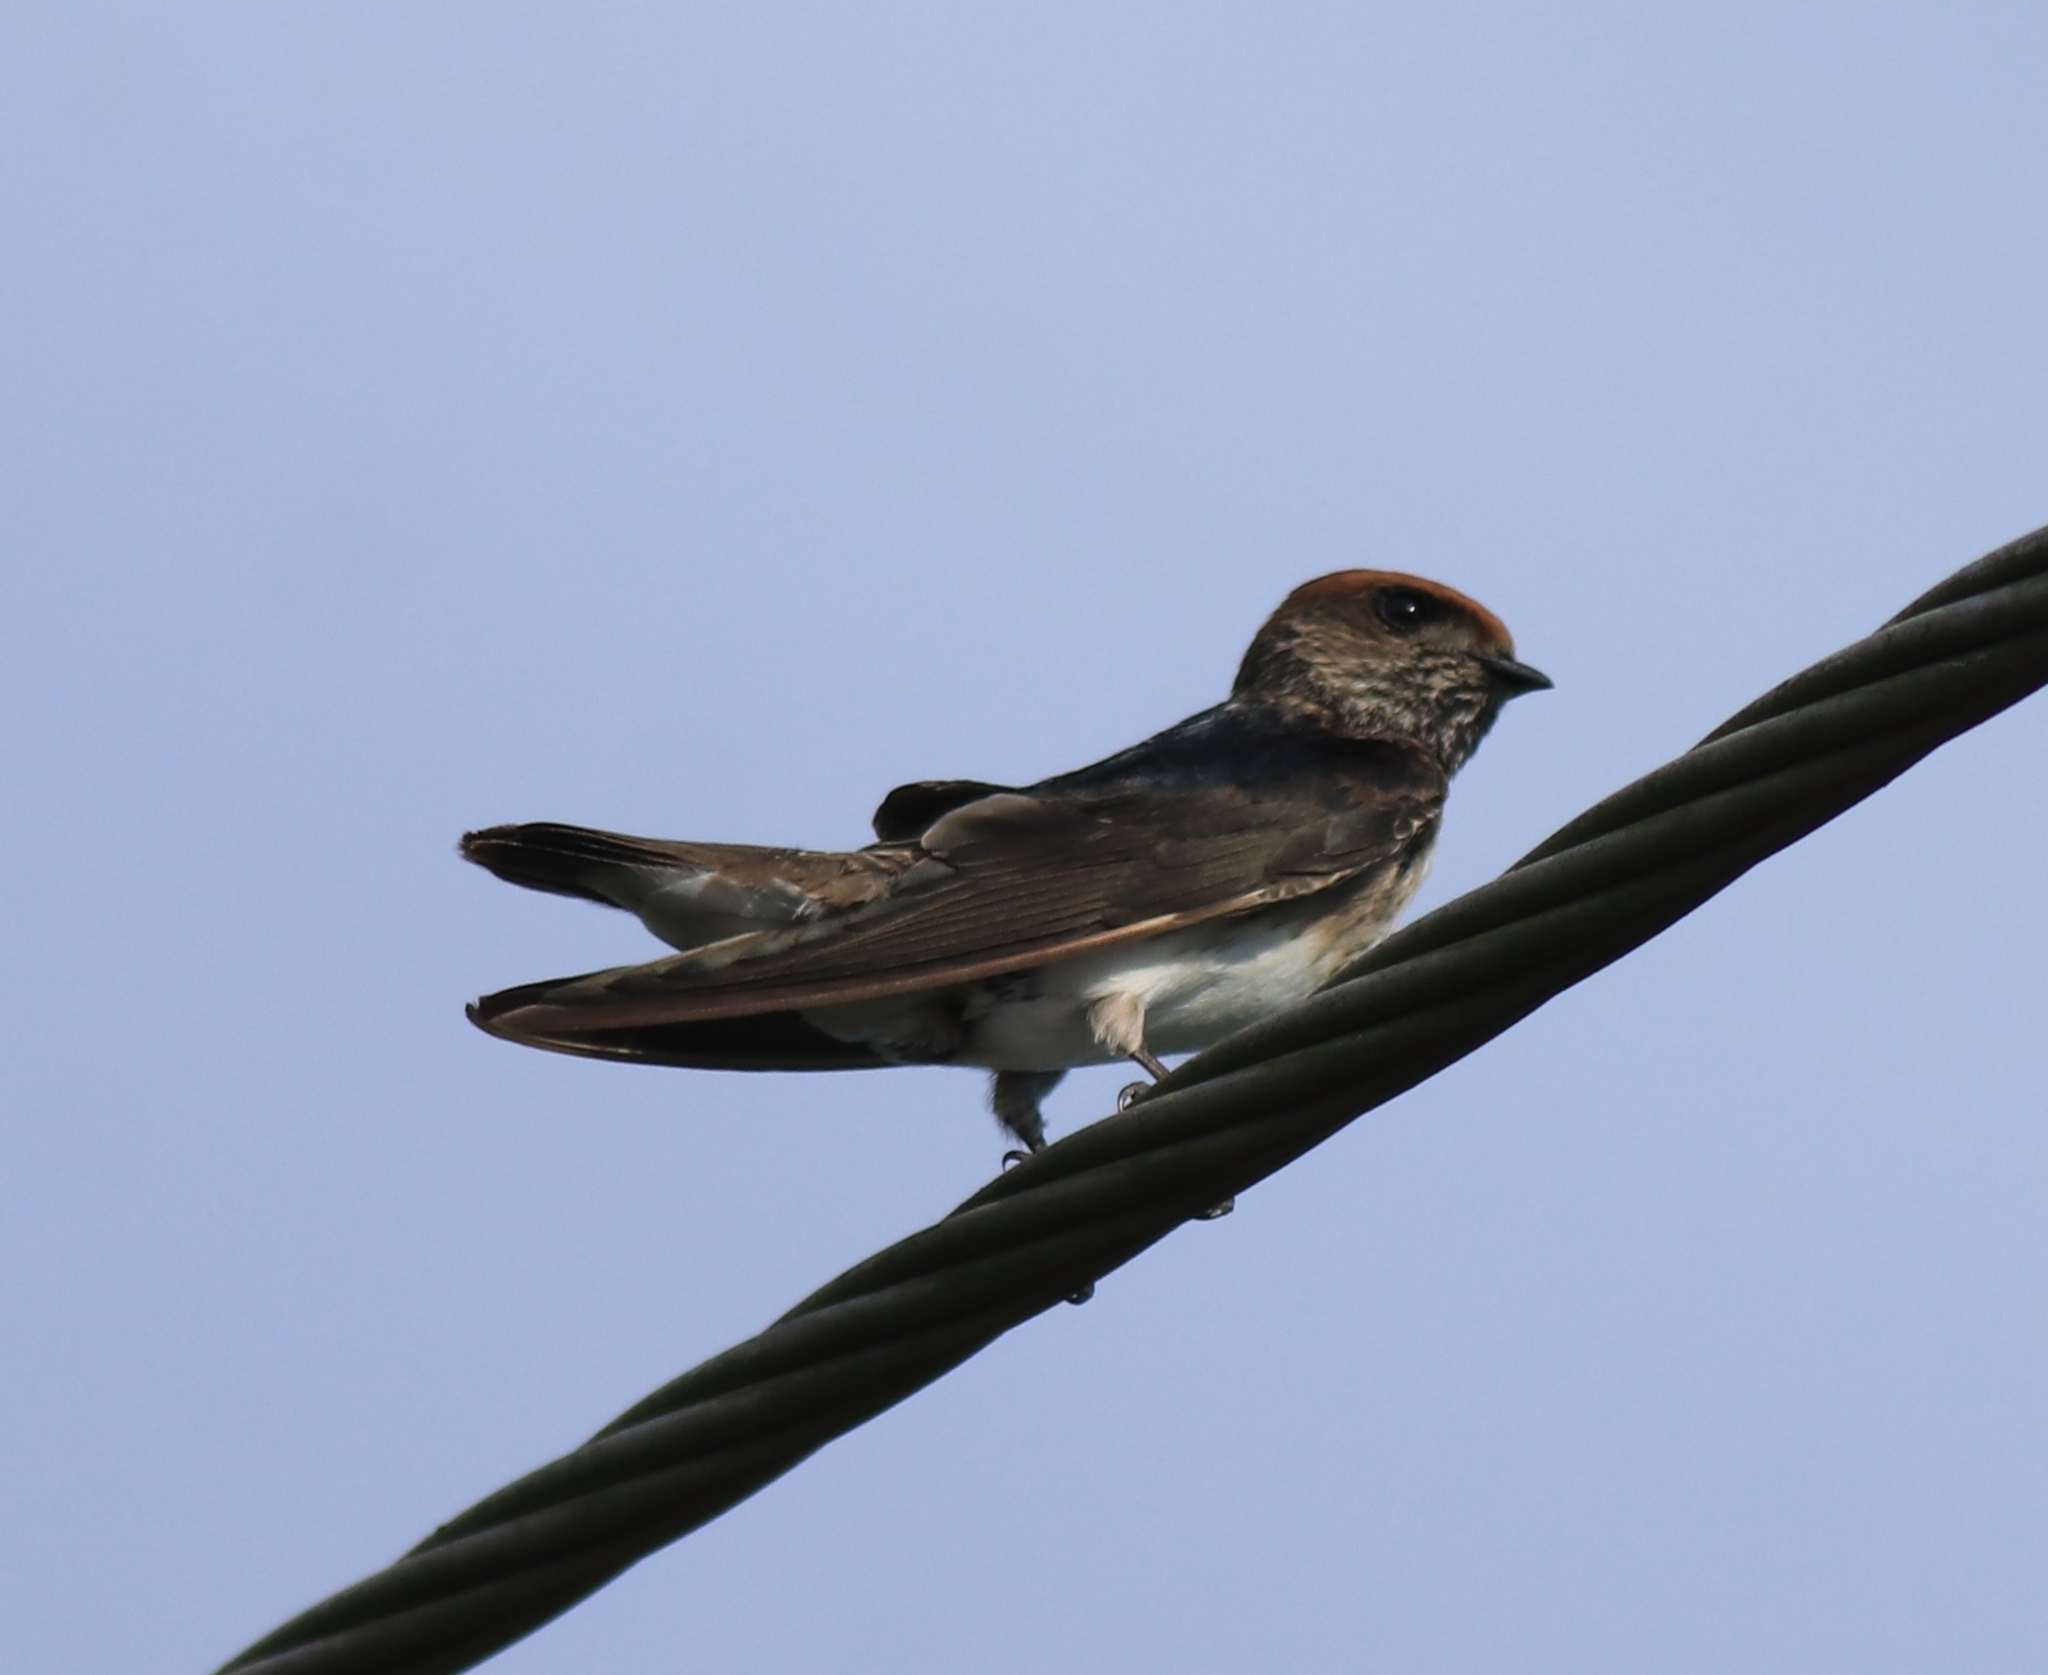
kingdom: Animalia
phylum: Chordata
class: Aves
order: Passeriformes
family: Hirundinidae
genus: Petrochelidon
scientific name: Petrochelidon fluvicola
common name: Streak-throated swallow
